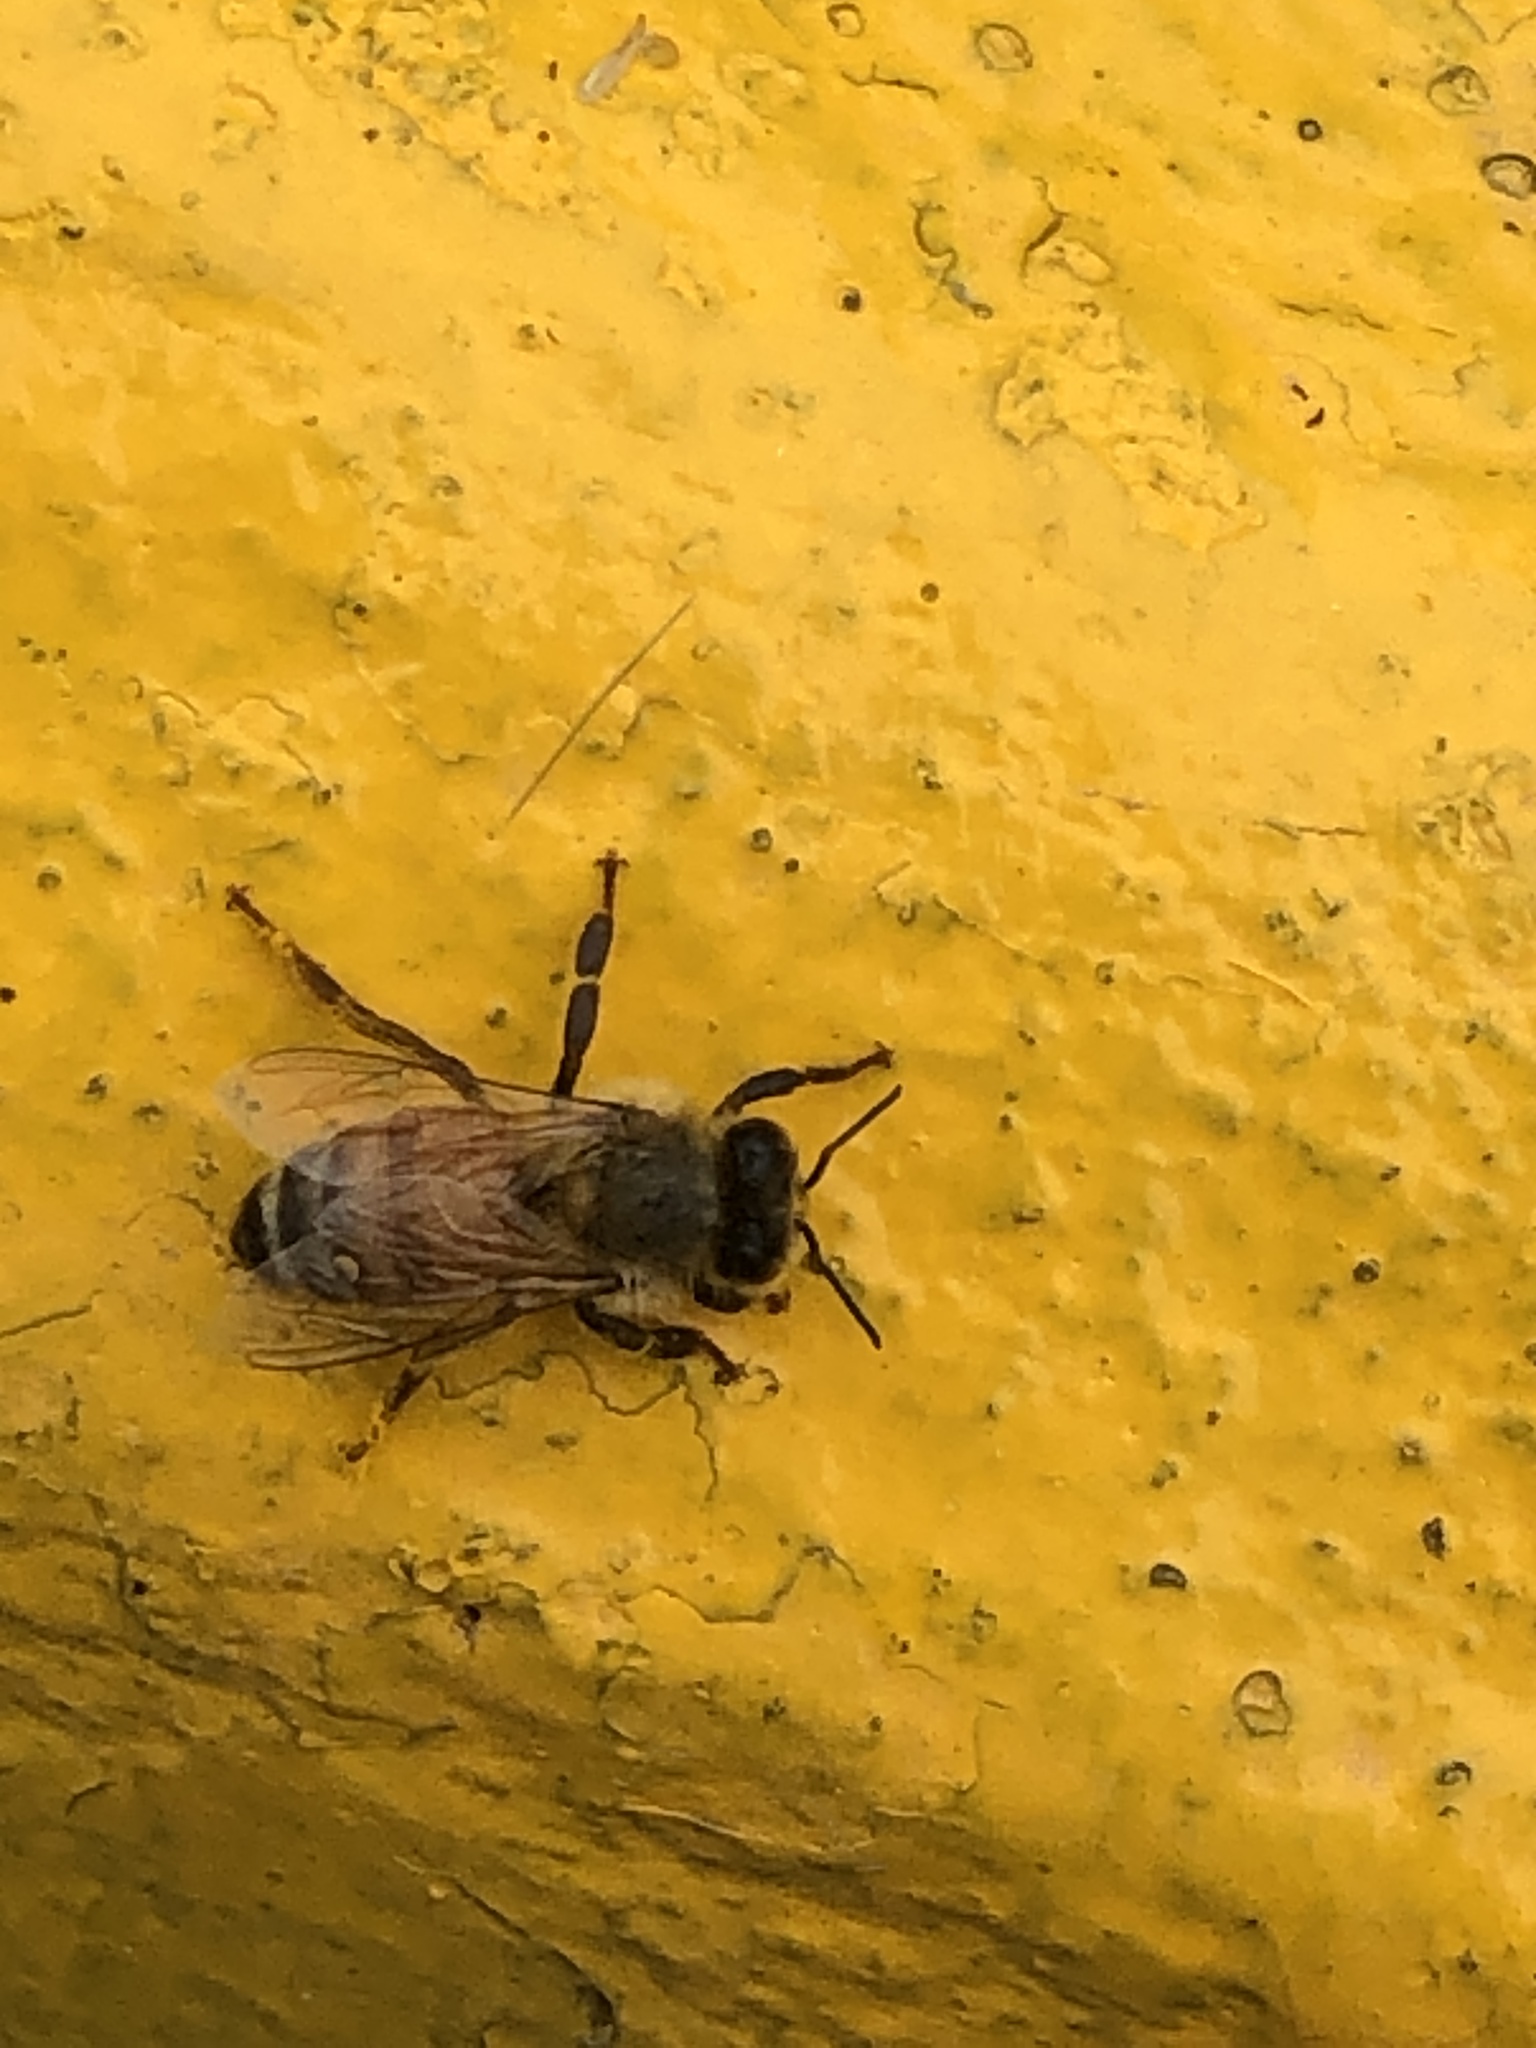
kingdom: Animalia
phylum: Arthropoda
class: Insecta
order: Hymenoptera
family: Apidae
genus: Apis
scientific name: Apis mellifera
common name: Honey bee
